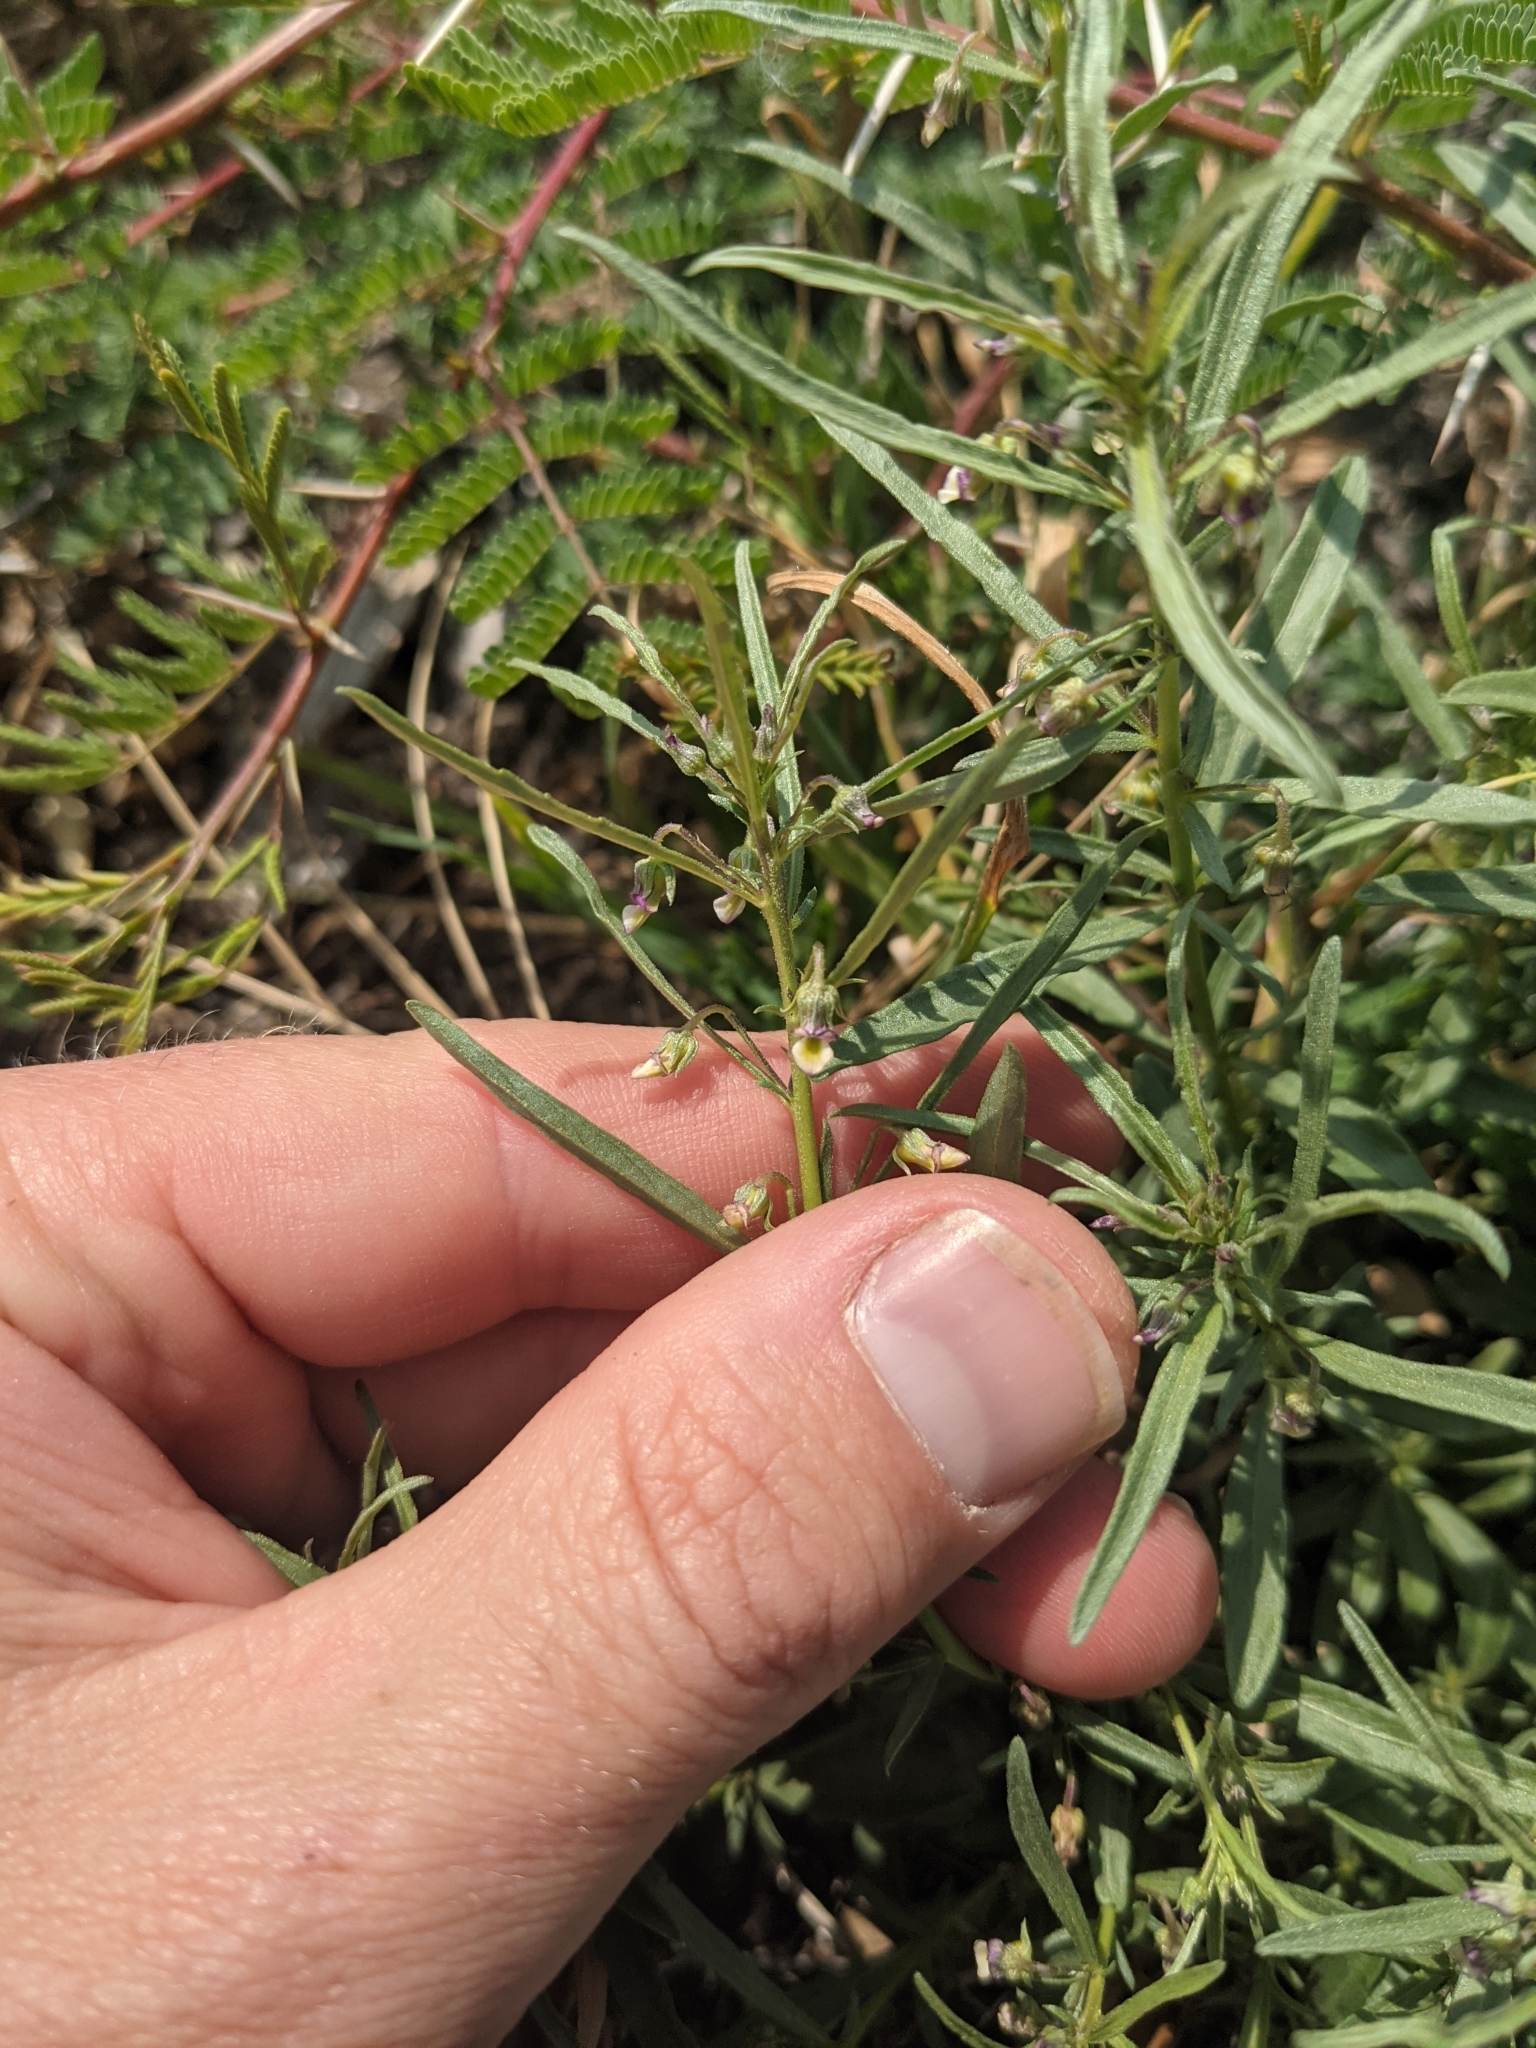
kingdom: Plantae
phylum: Tracheophyta
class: Magnoliopsida
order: Malpighiales
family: Violaceae
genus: Pombalia
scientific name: Pombalia verticillata
